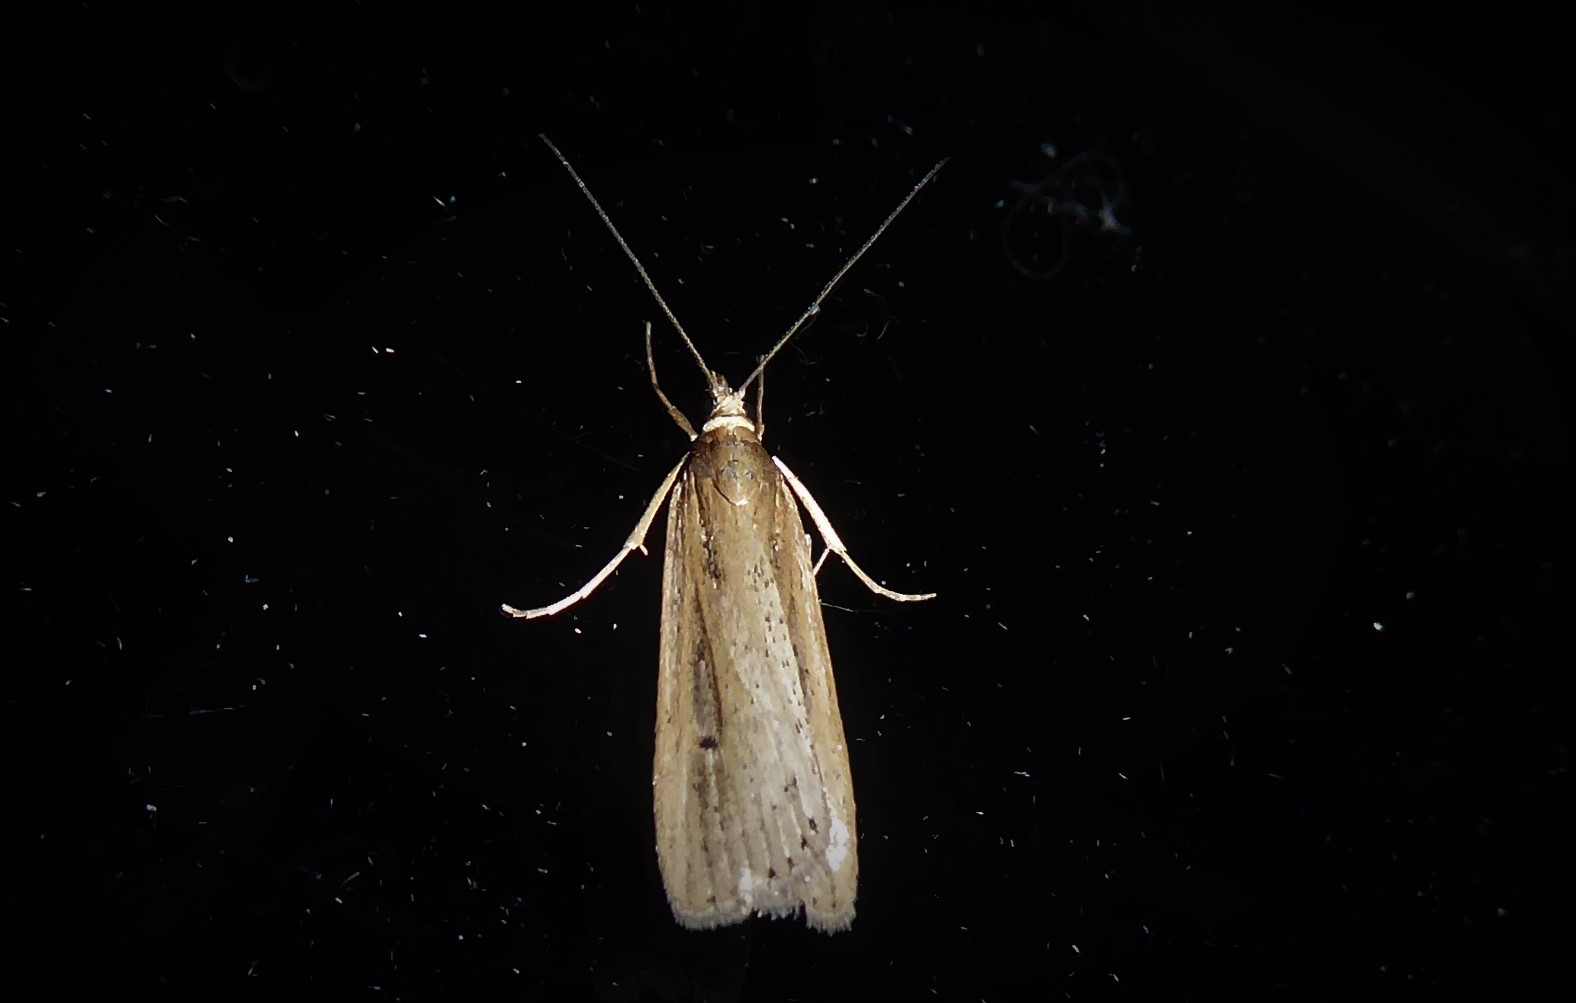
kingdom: Animalia
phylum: Arthropoda
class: Insecta
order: Lepidoptera
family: Crambidae
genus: Eudonia
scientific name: Eudonia sabulosella
